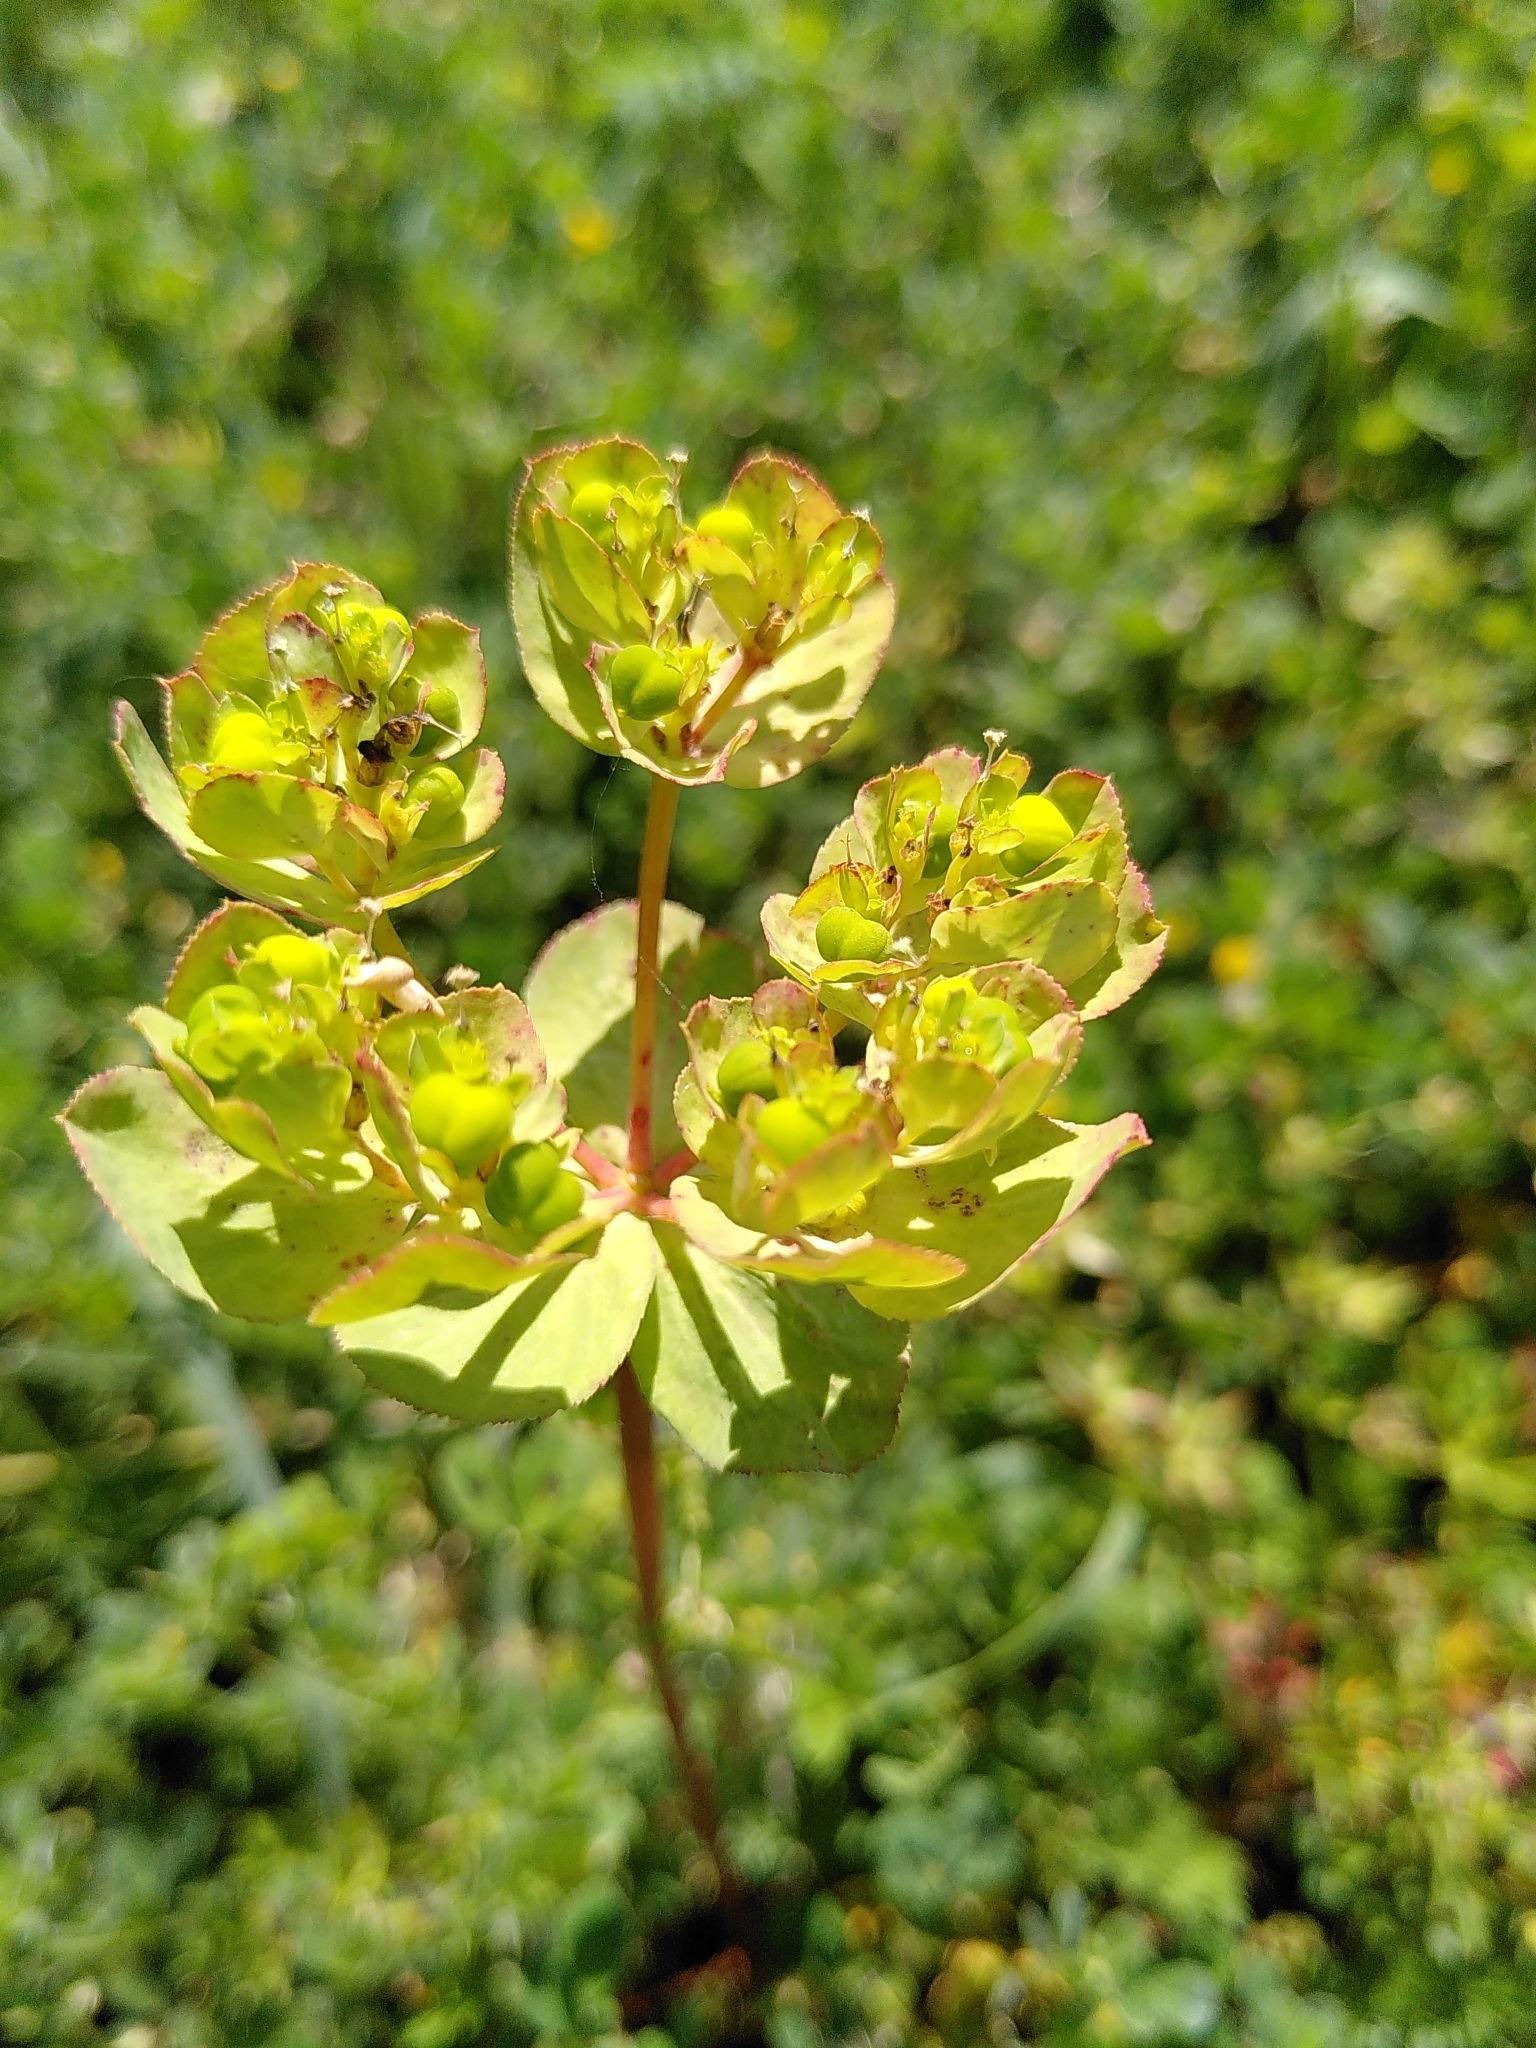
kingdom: Plantae
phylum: Tracheophyta
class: Magnoliopsida
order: Malpighiales
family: Euphorbiaceae
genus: Euphorbia
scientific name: Euphorbia helioscopia
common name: Sun spurge
